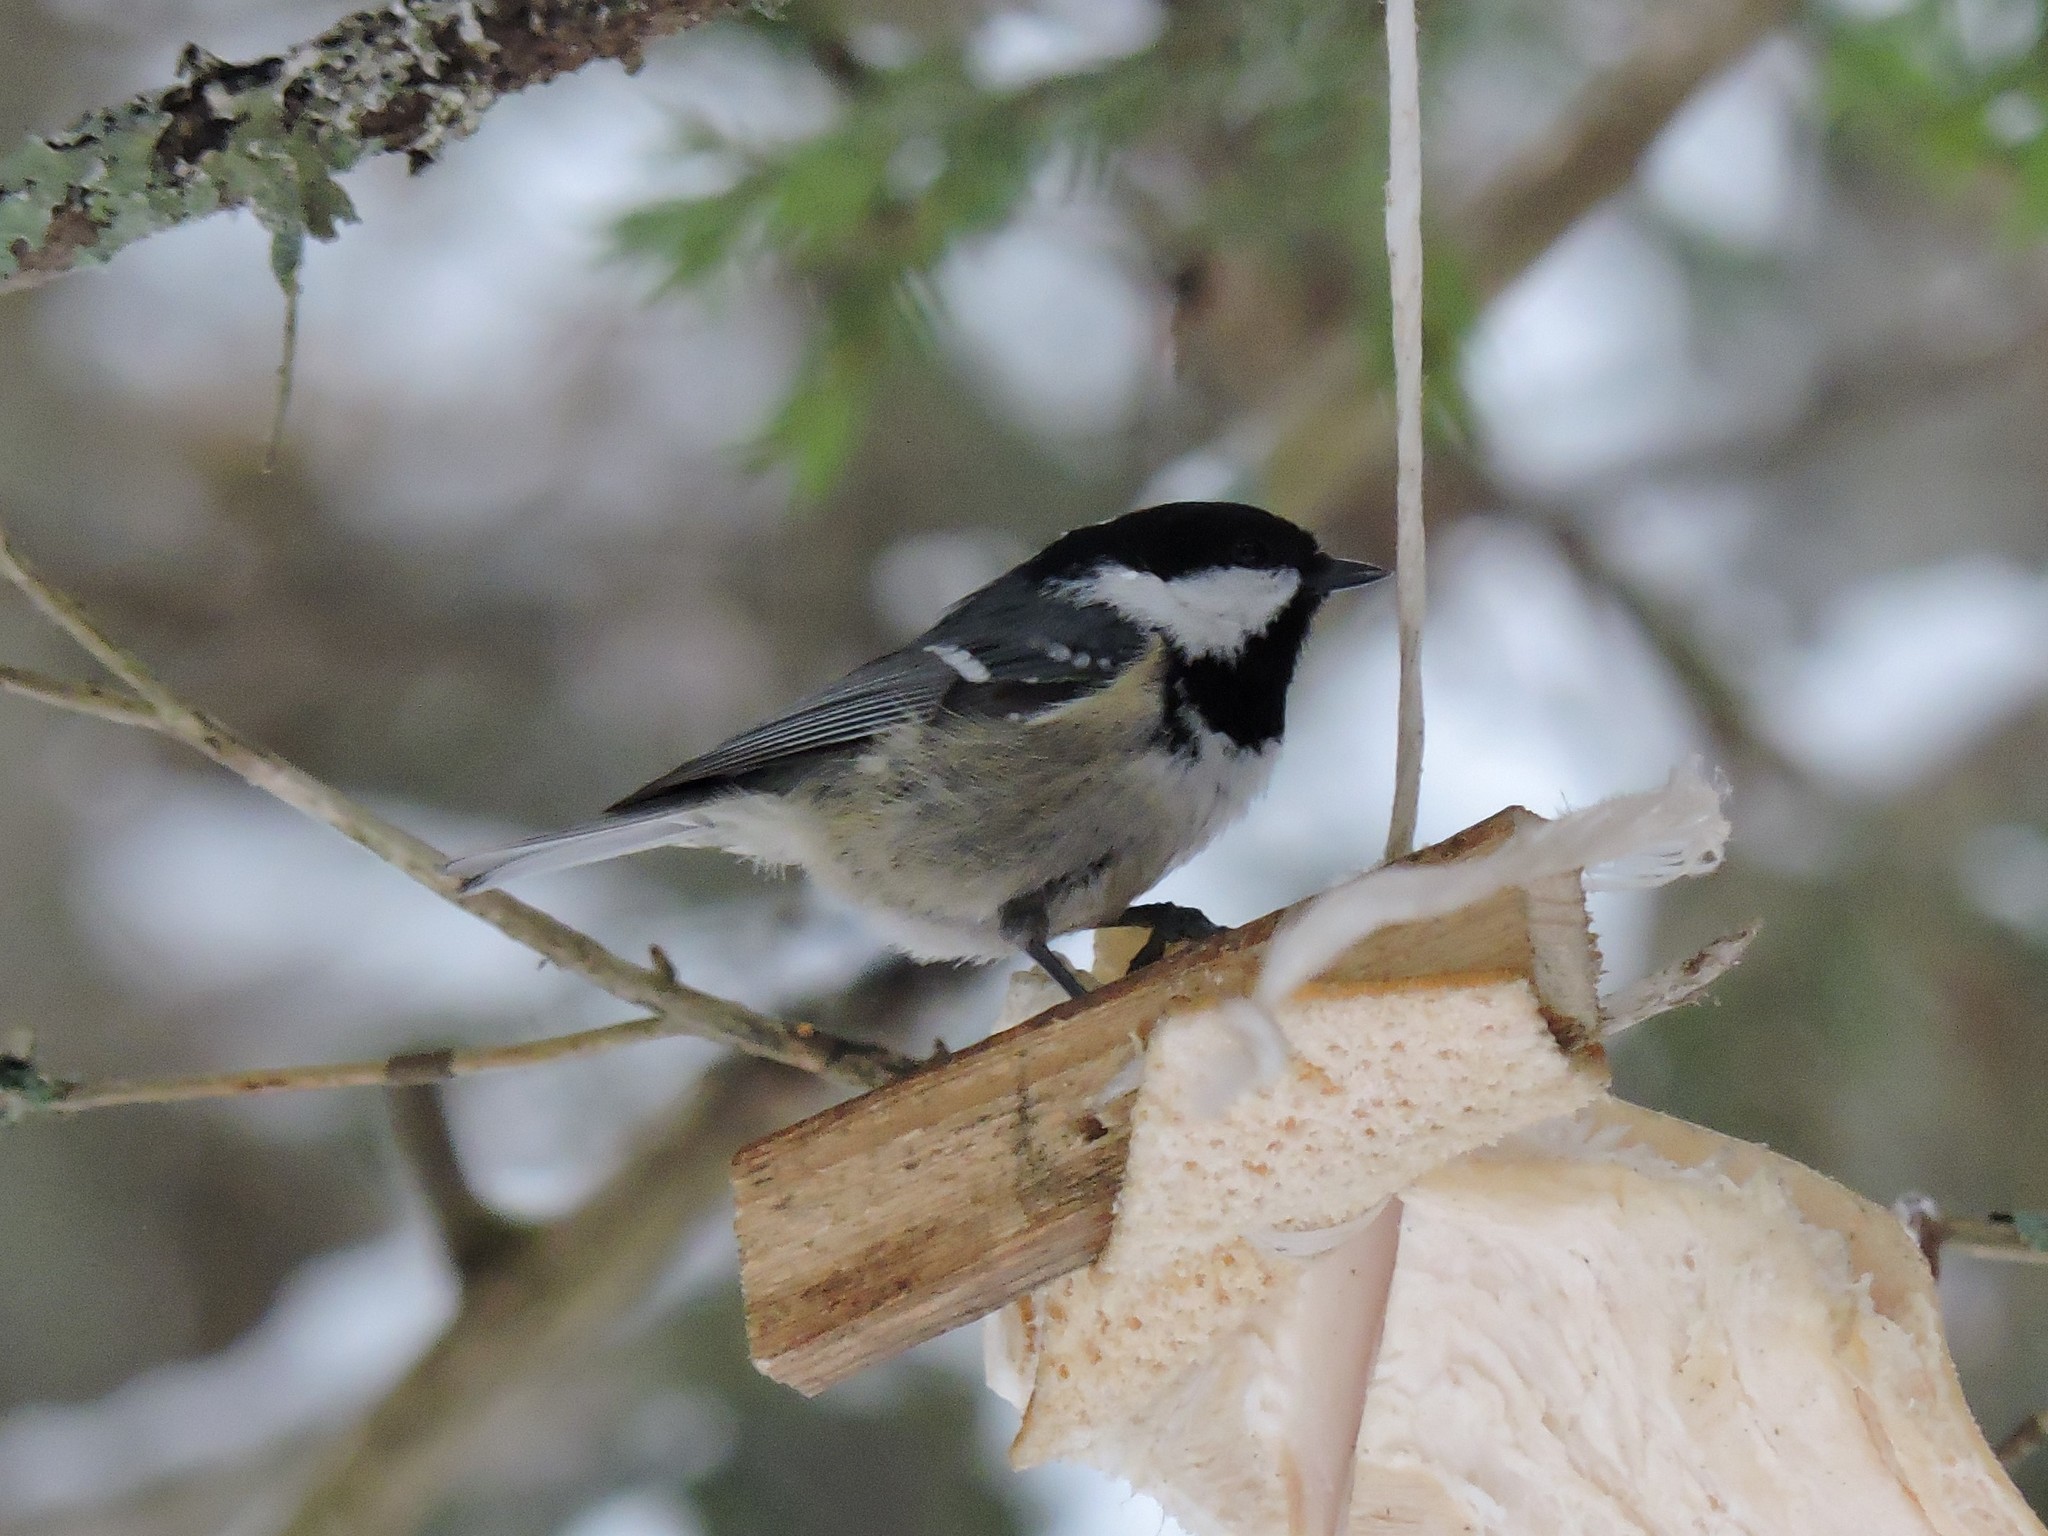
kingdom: Animalia
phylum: Chordata
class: Aves
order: Passeriformes
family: Paridae
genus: Periparus
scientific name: Periparus ater
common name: Coal tit
